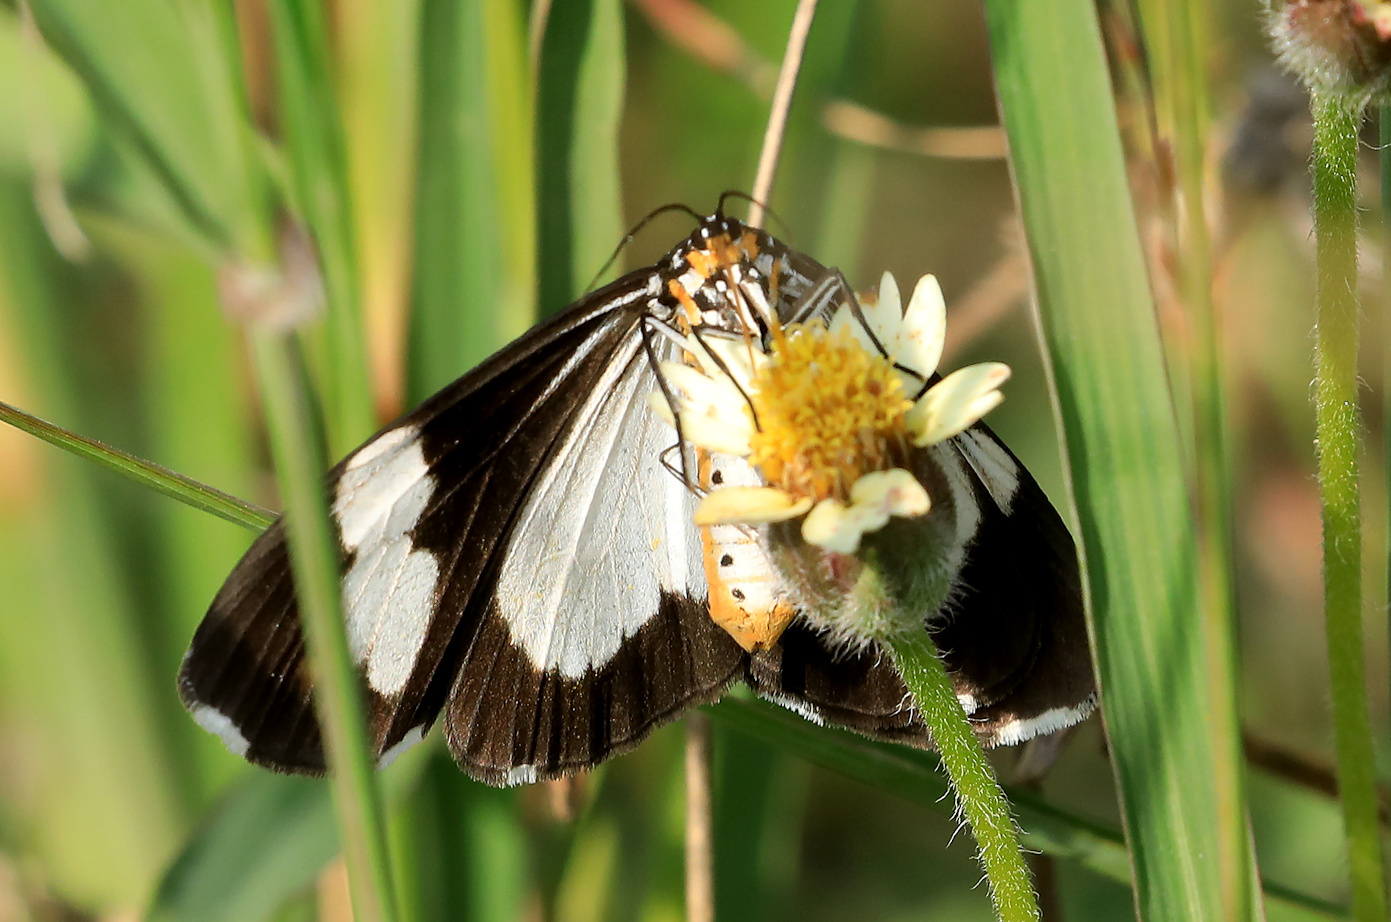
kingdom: Animalia
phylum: Arthropoda
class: Insecta
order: Lepidoptera
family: Erebidae
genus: Nyctemera
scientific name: Nyctemera
